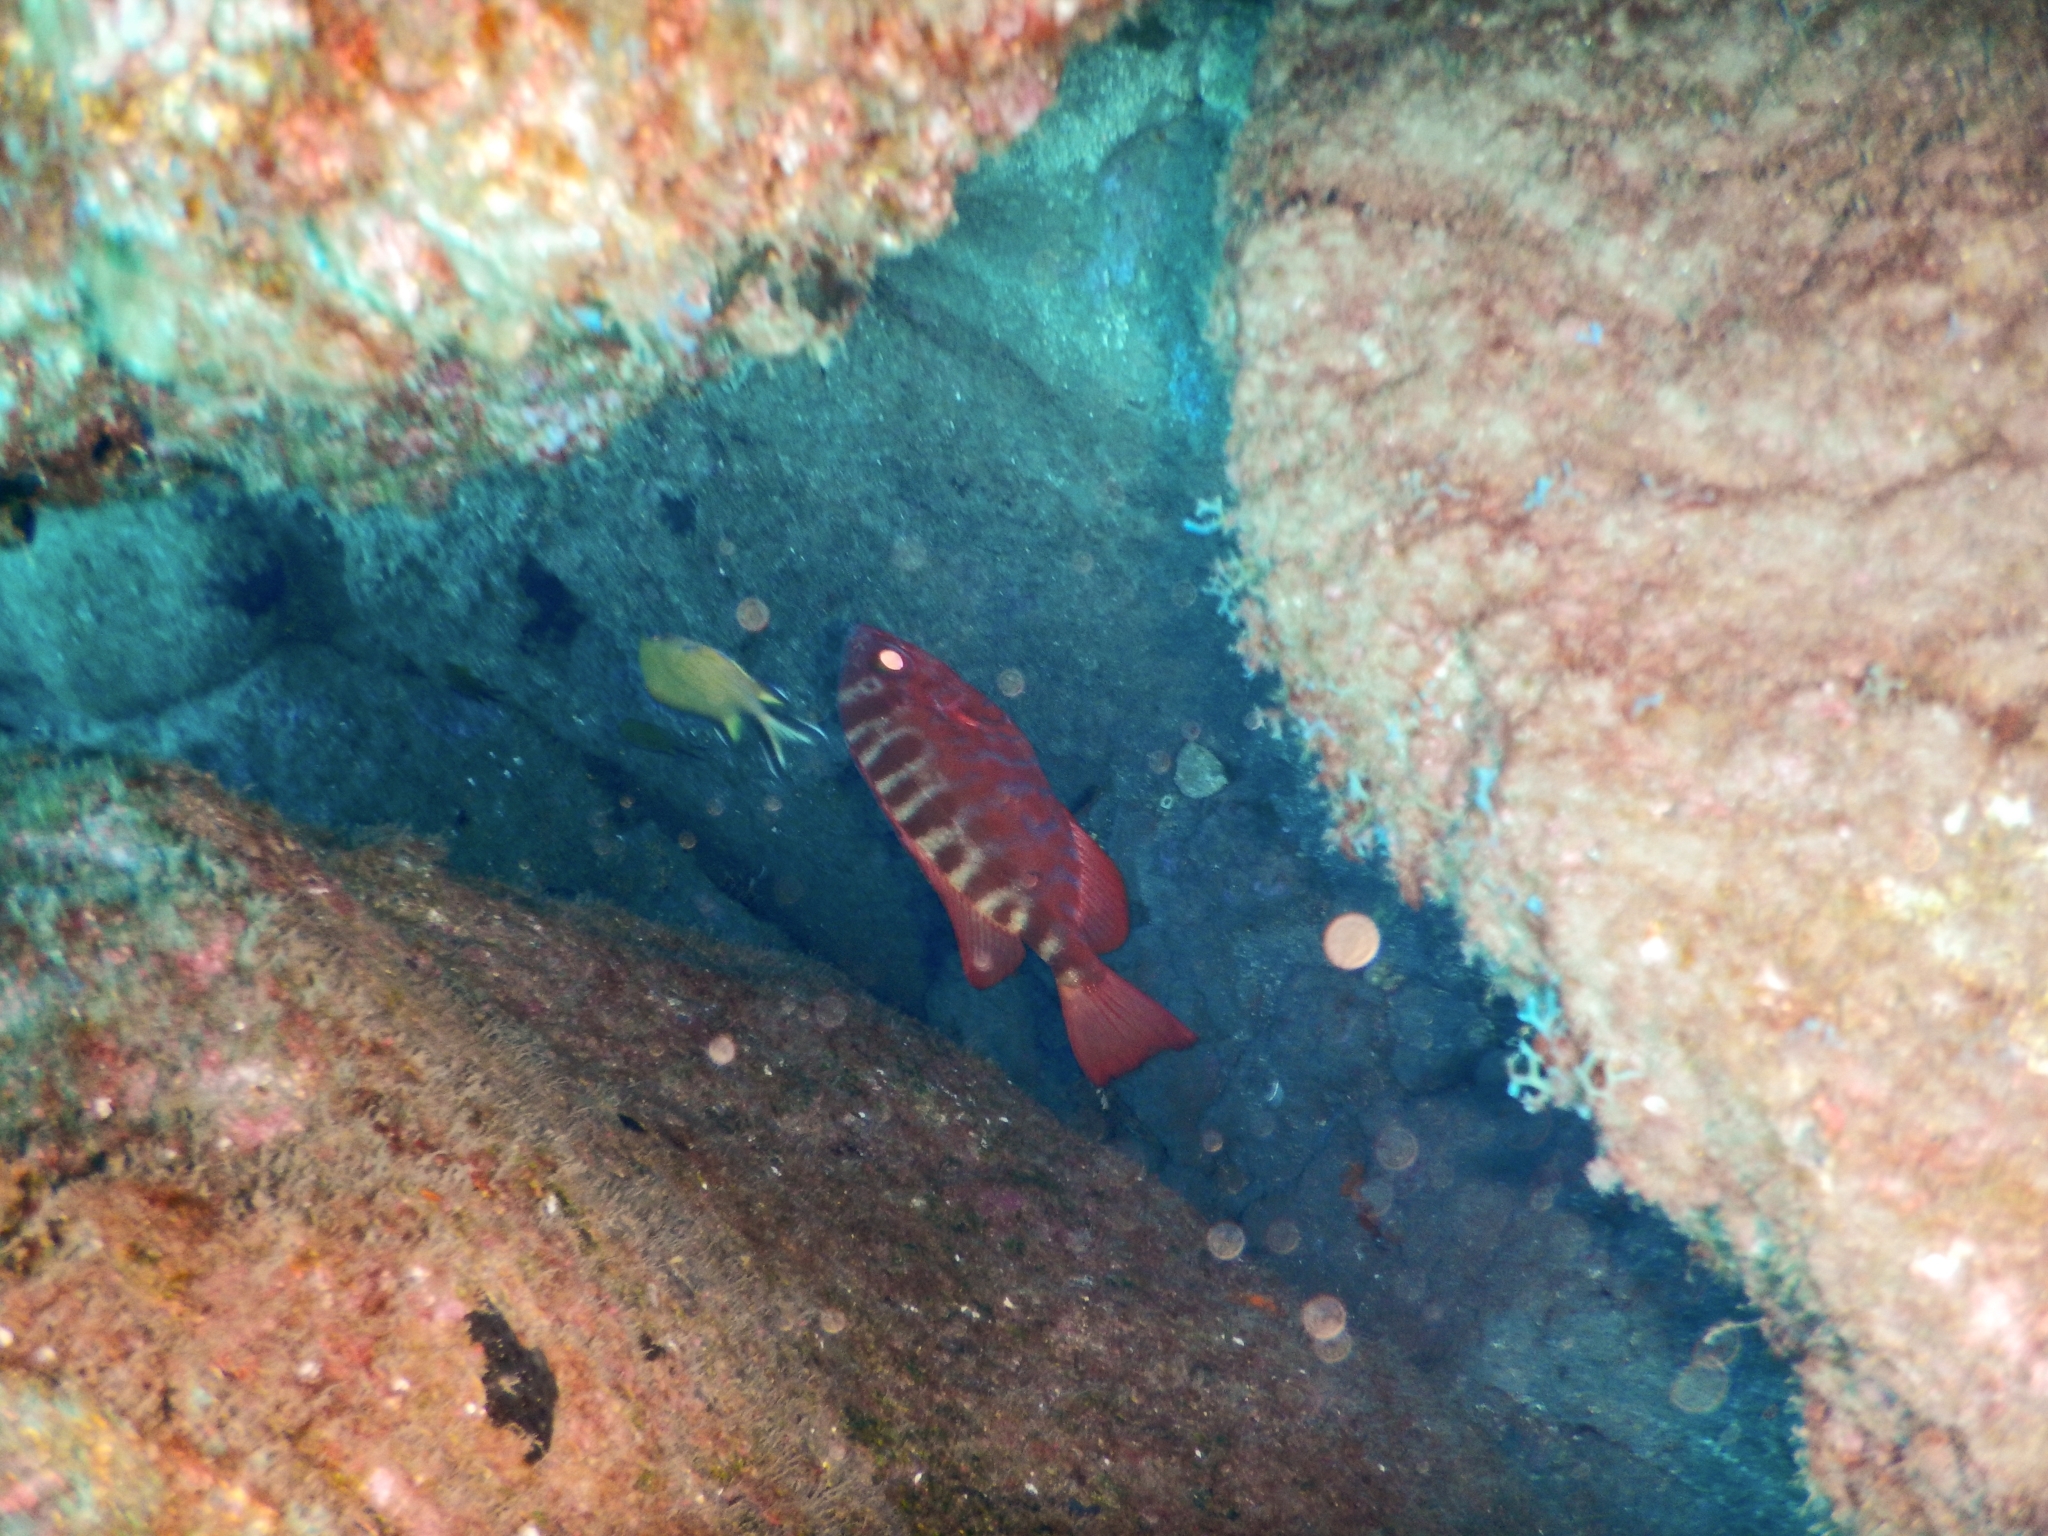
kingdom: Animalia
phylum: Chordata
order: Perciformes
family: Priacanthidae
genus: Heteropriacanthus
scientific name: Heteropriacanthus fulgens
